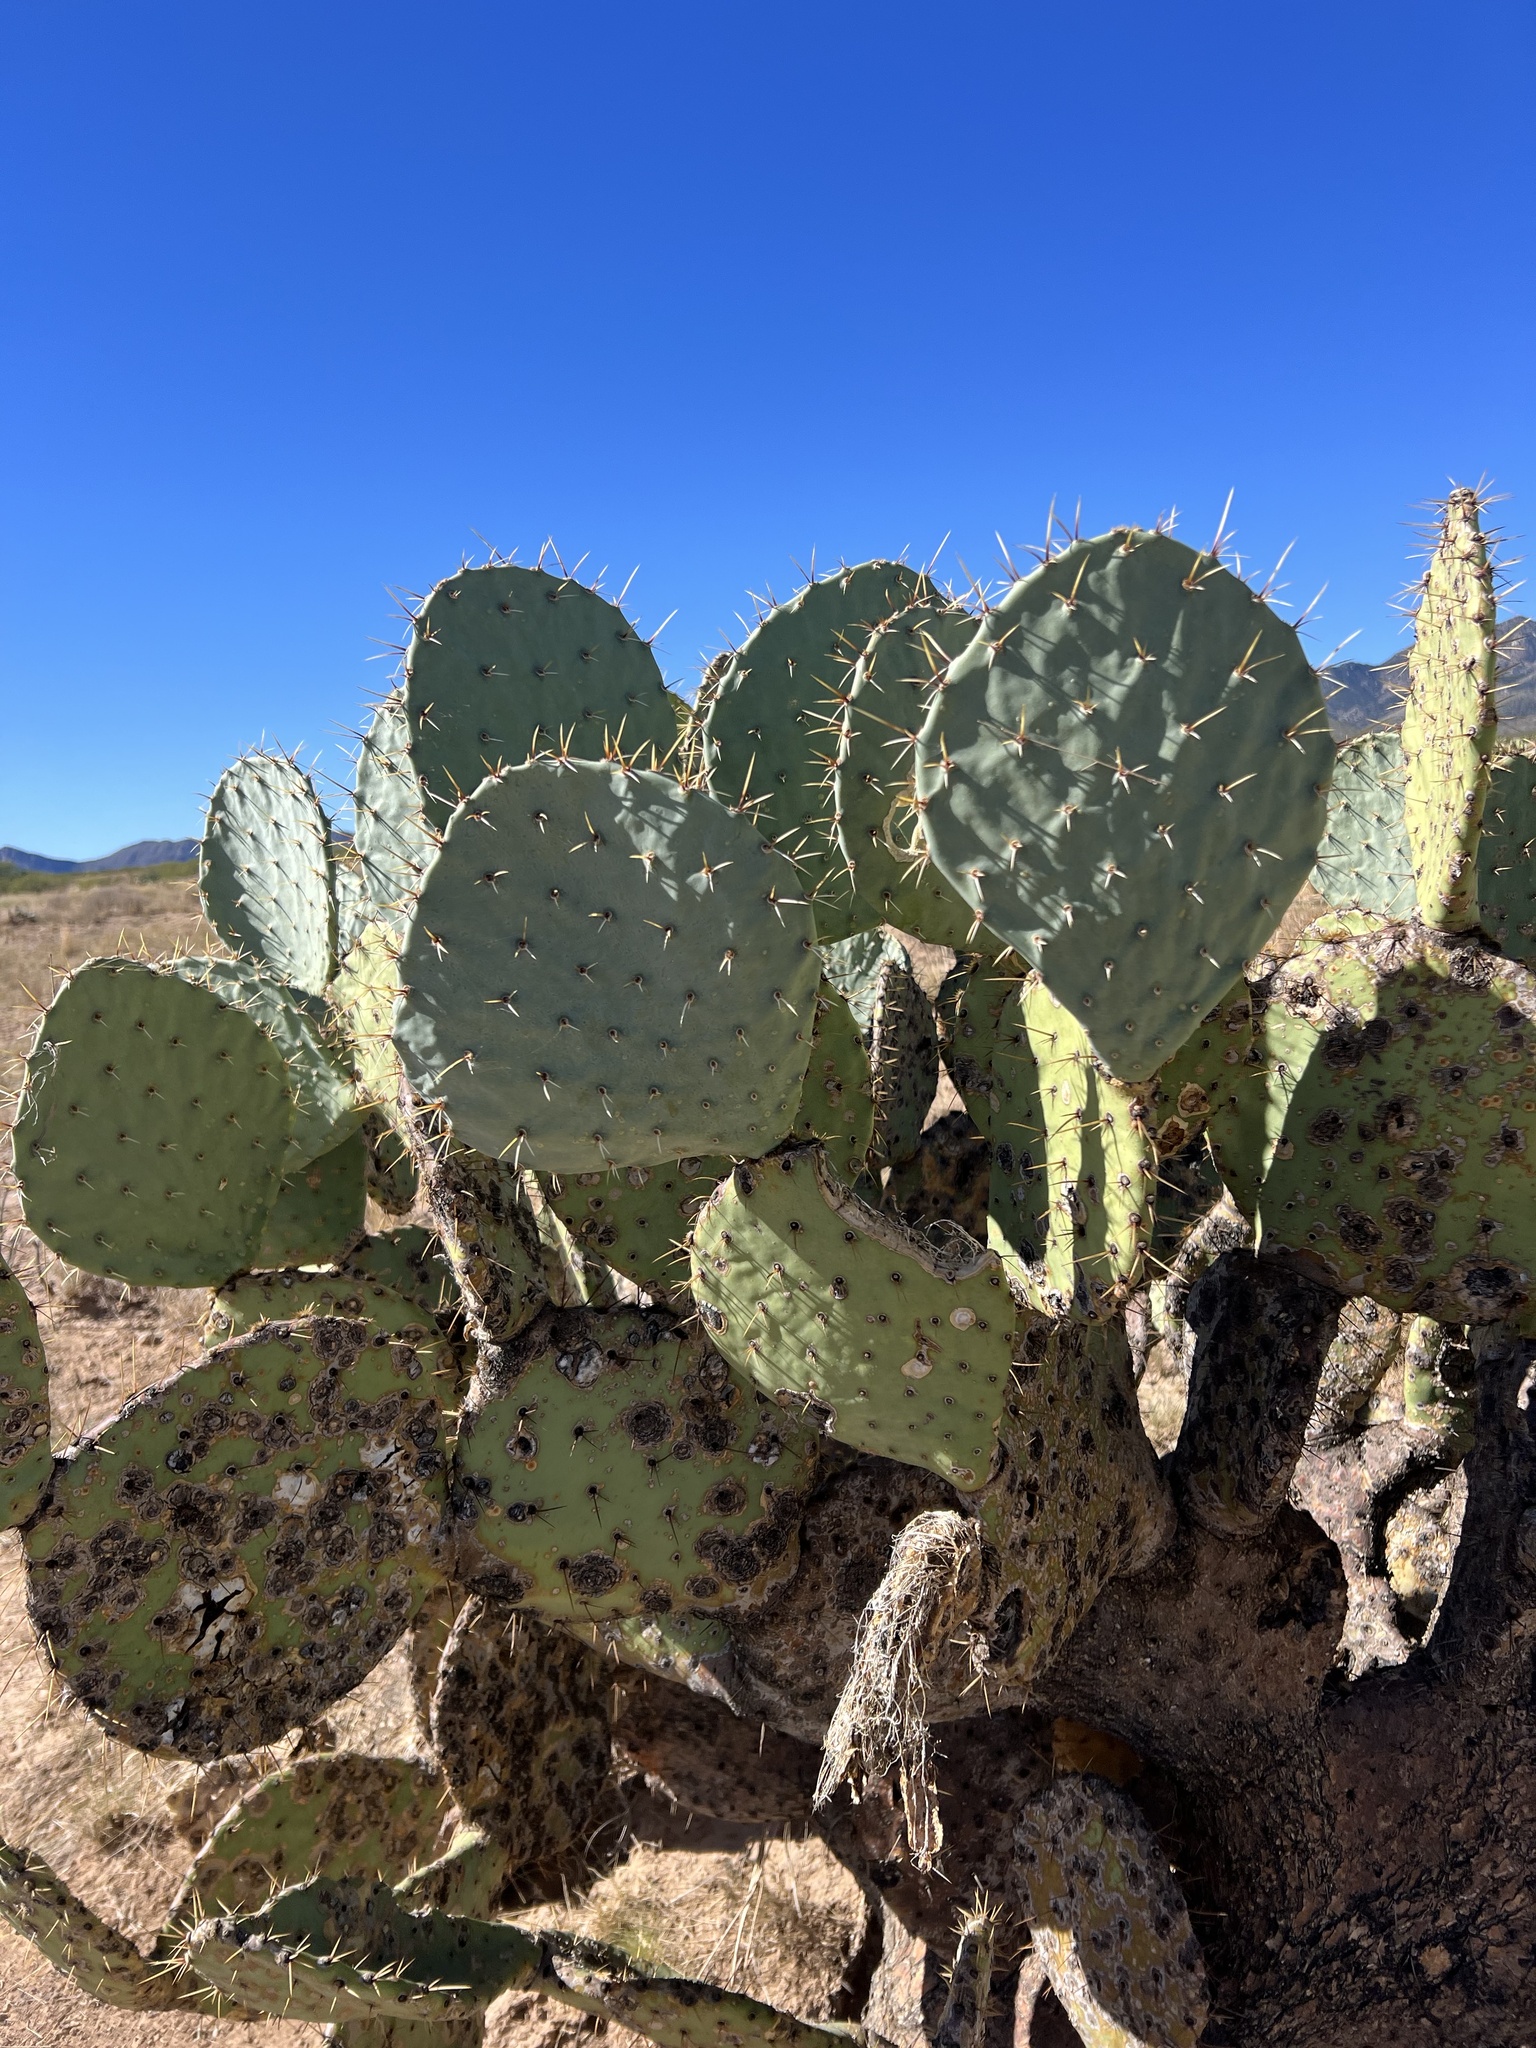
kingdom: Plantae
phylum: Tracheophyta
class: Magnoliopsida
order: Caryophyllales
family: Cactaceae
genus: Opuntia
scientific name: Opuntia engelmannii
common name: Cactus-apple
